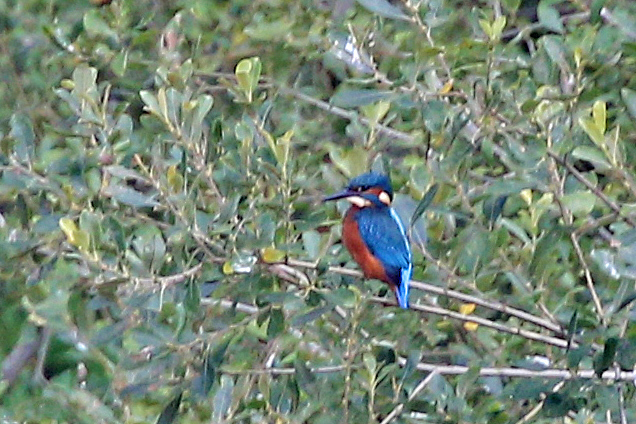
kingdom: Animalia
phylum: Chordata
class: Aves
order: Coraciiformes
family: Alcedinidae
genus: Alcedo
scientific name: Alcedo atthis
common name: Common kingfisher
